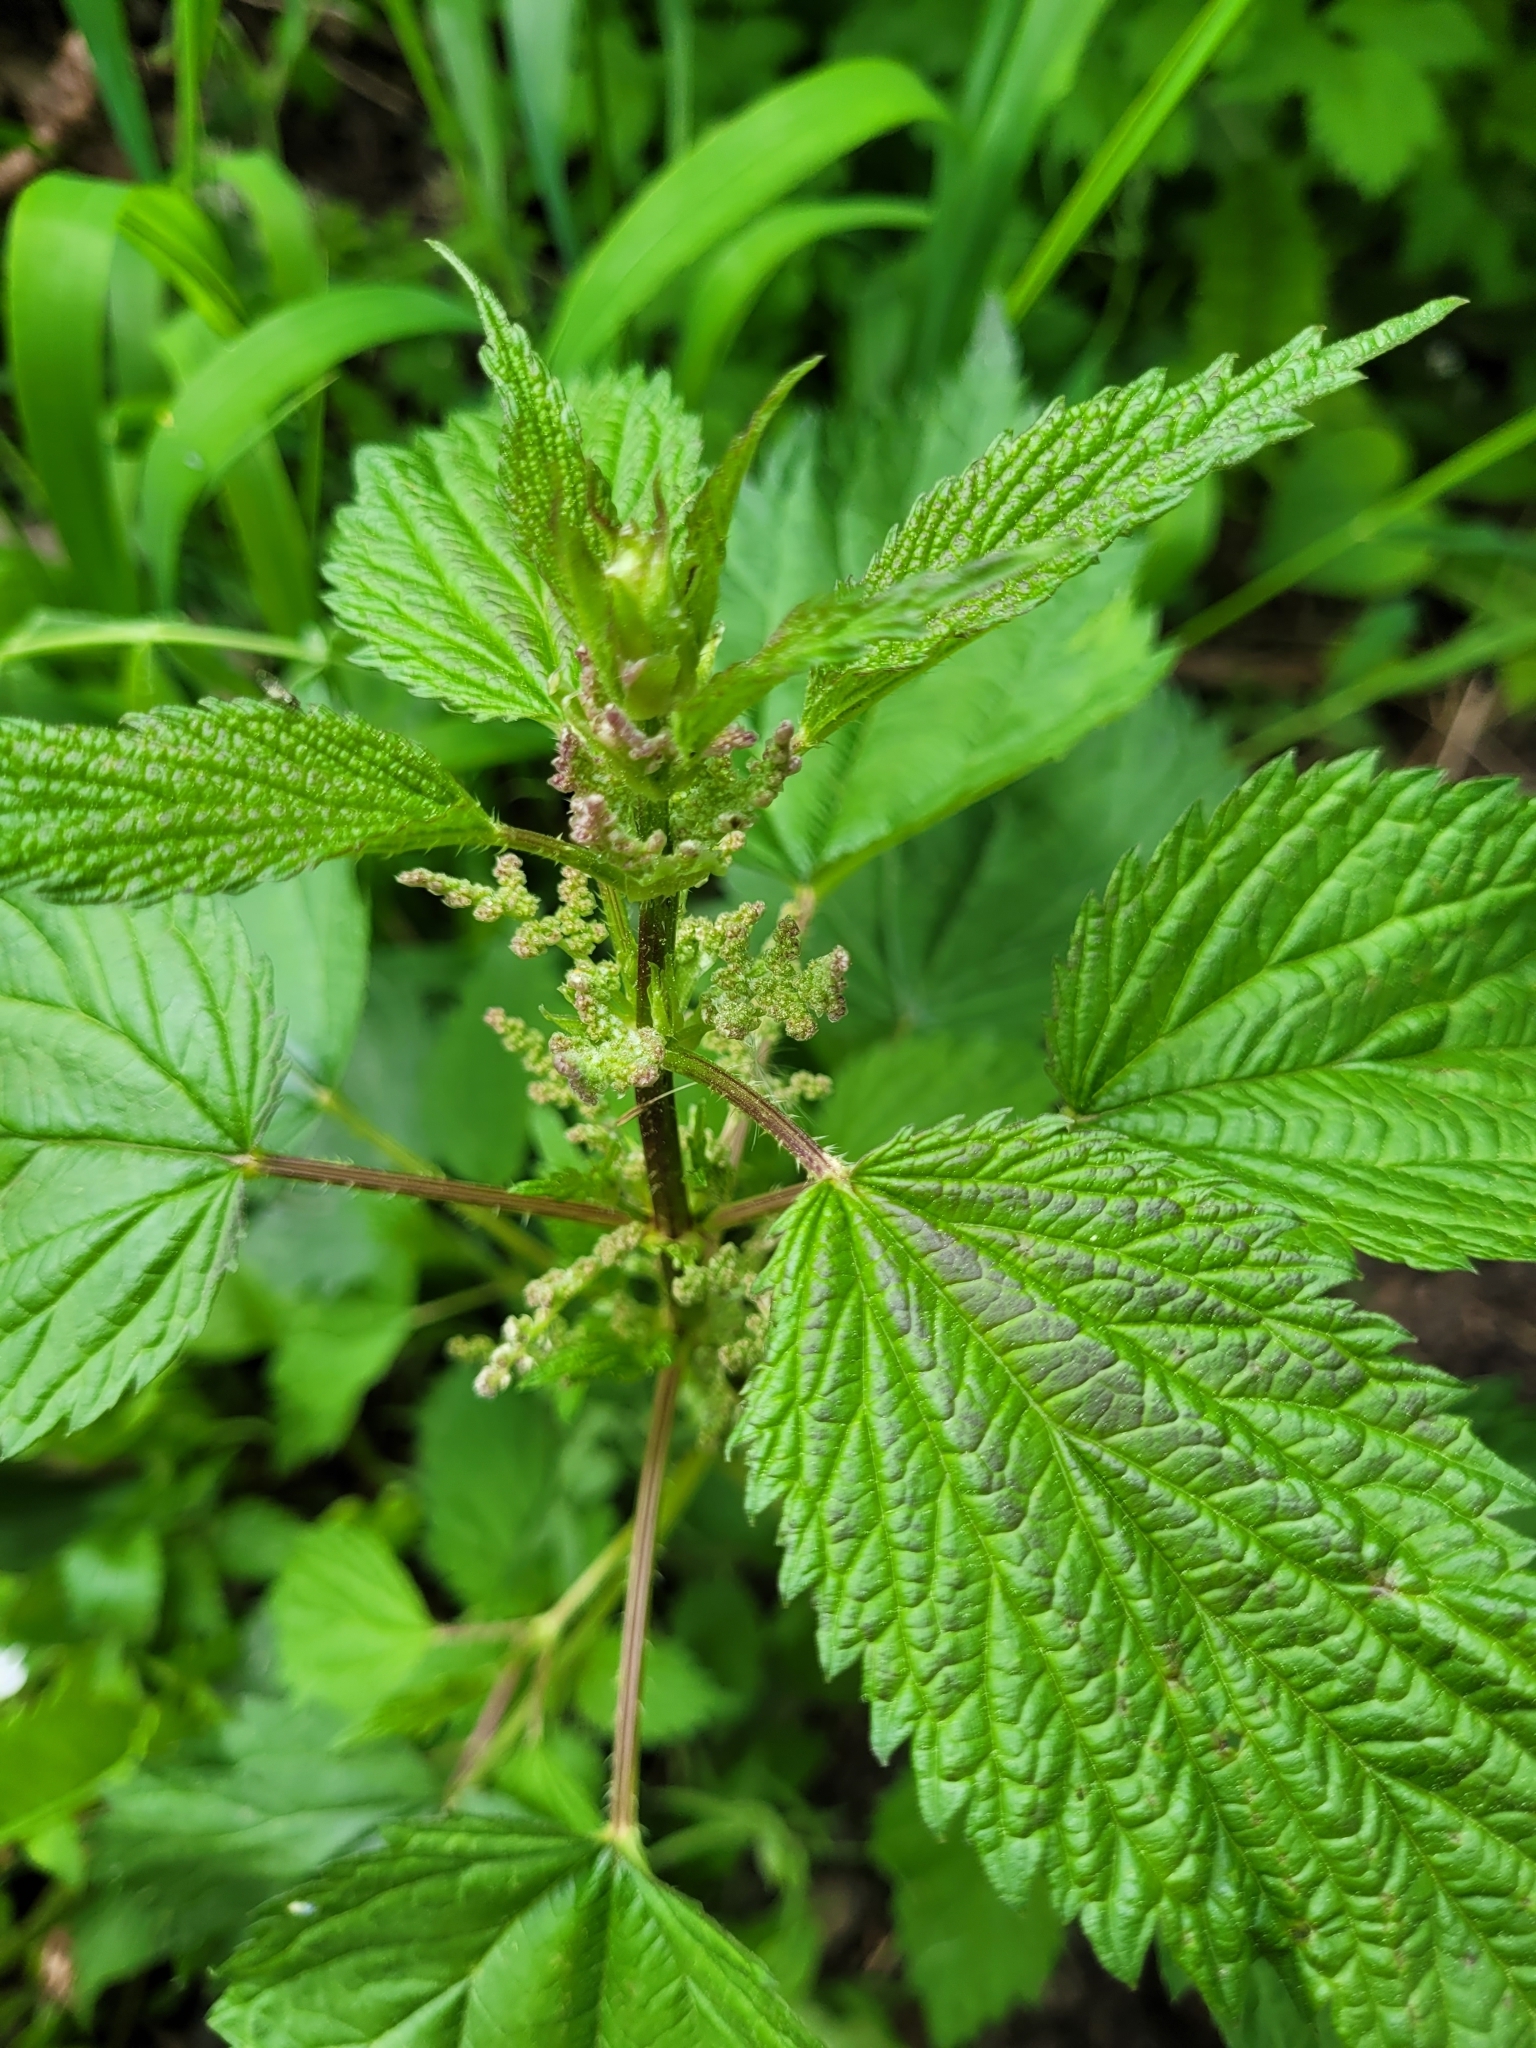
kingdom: Plantae
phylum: Tracheophyta
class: Magnoliopsida
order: Rosales
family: Urticaceae
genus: Urtica
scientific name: Urtica dioica
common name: Common nettle
